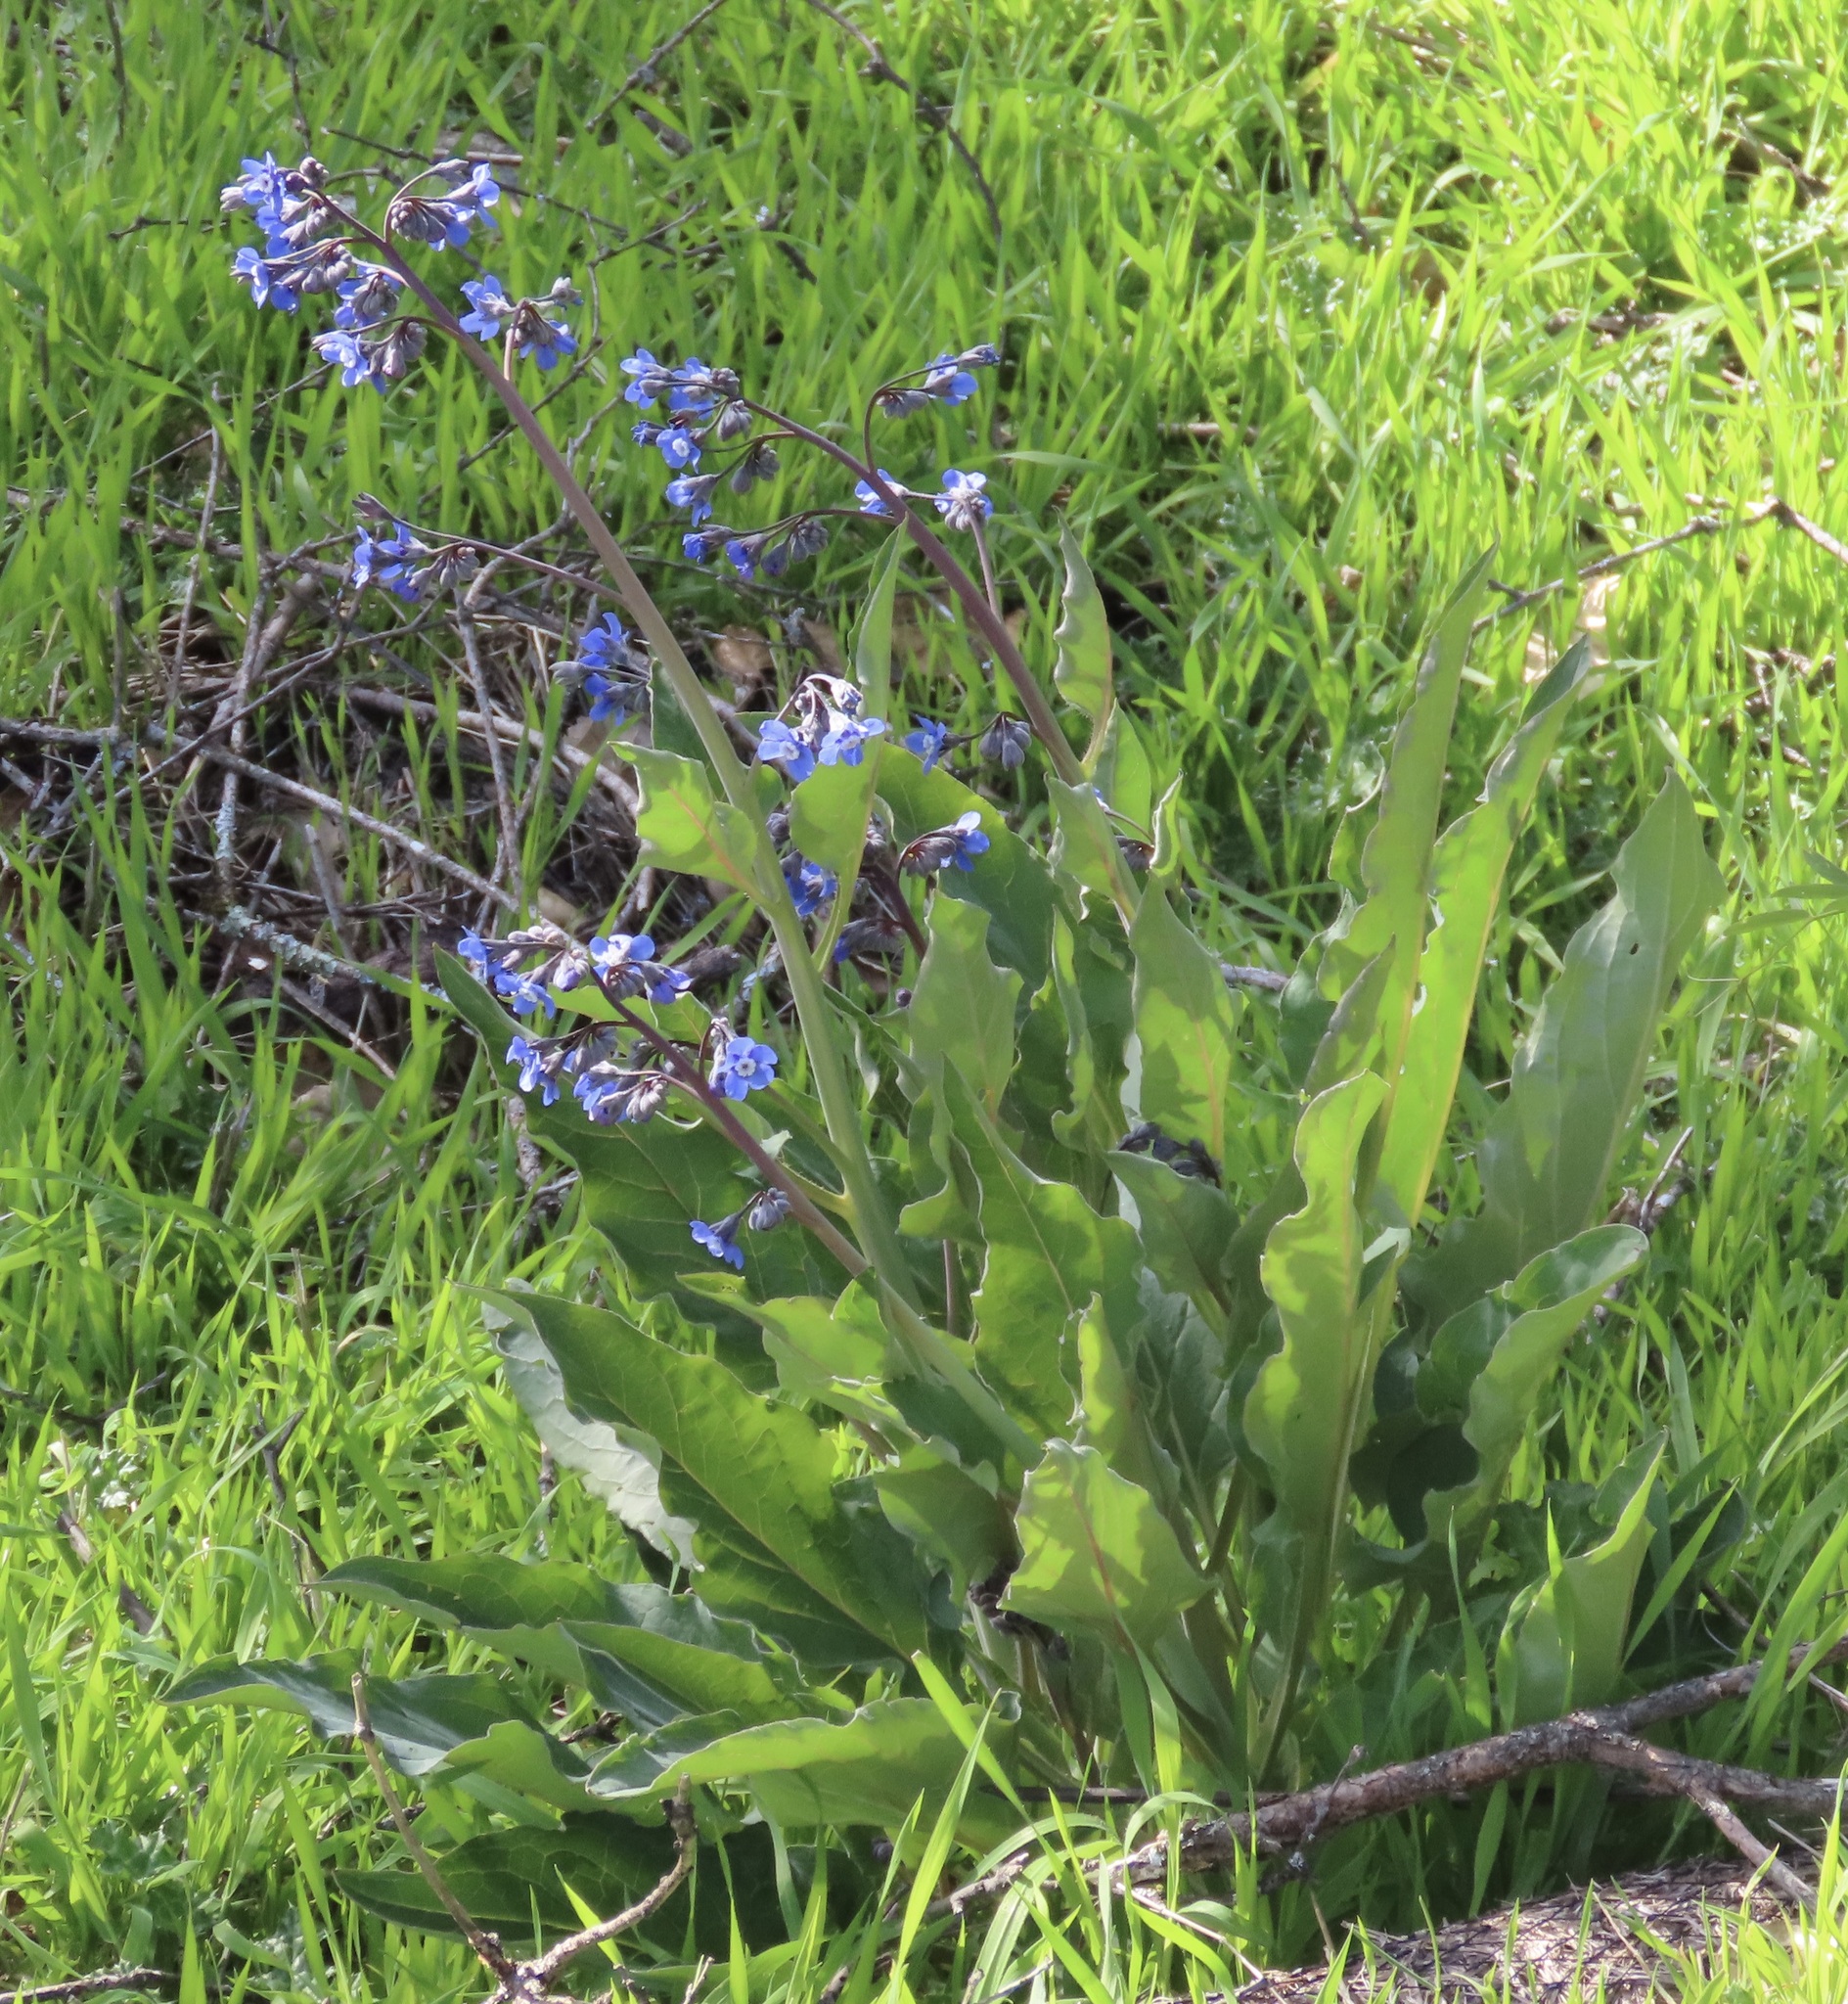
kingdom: Plantae
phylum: Tracheophyta
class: Magnoliopsida
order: Boraginales
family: Boraginaceae
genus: Adelinia
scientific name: Adelinia grande
